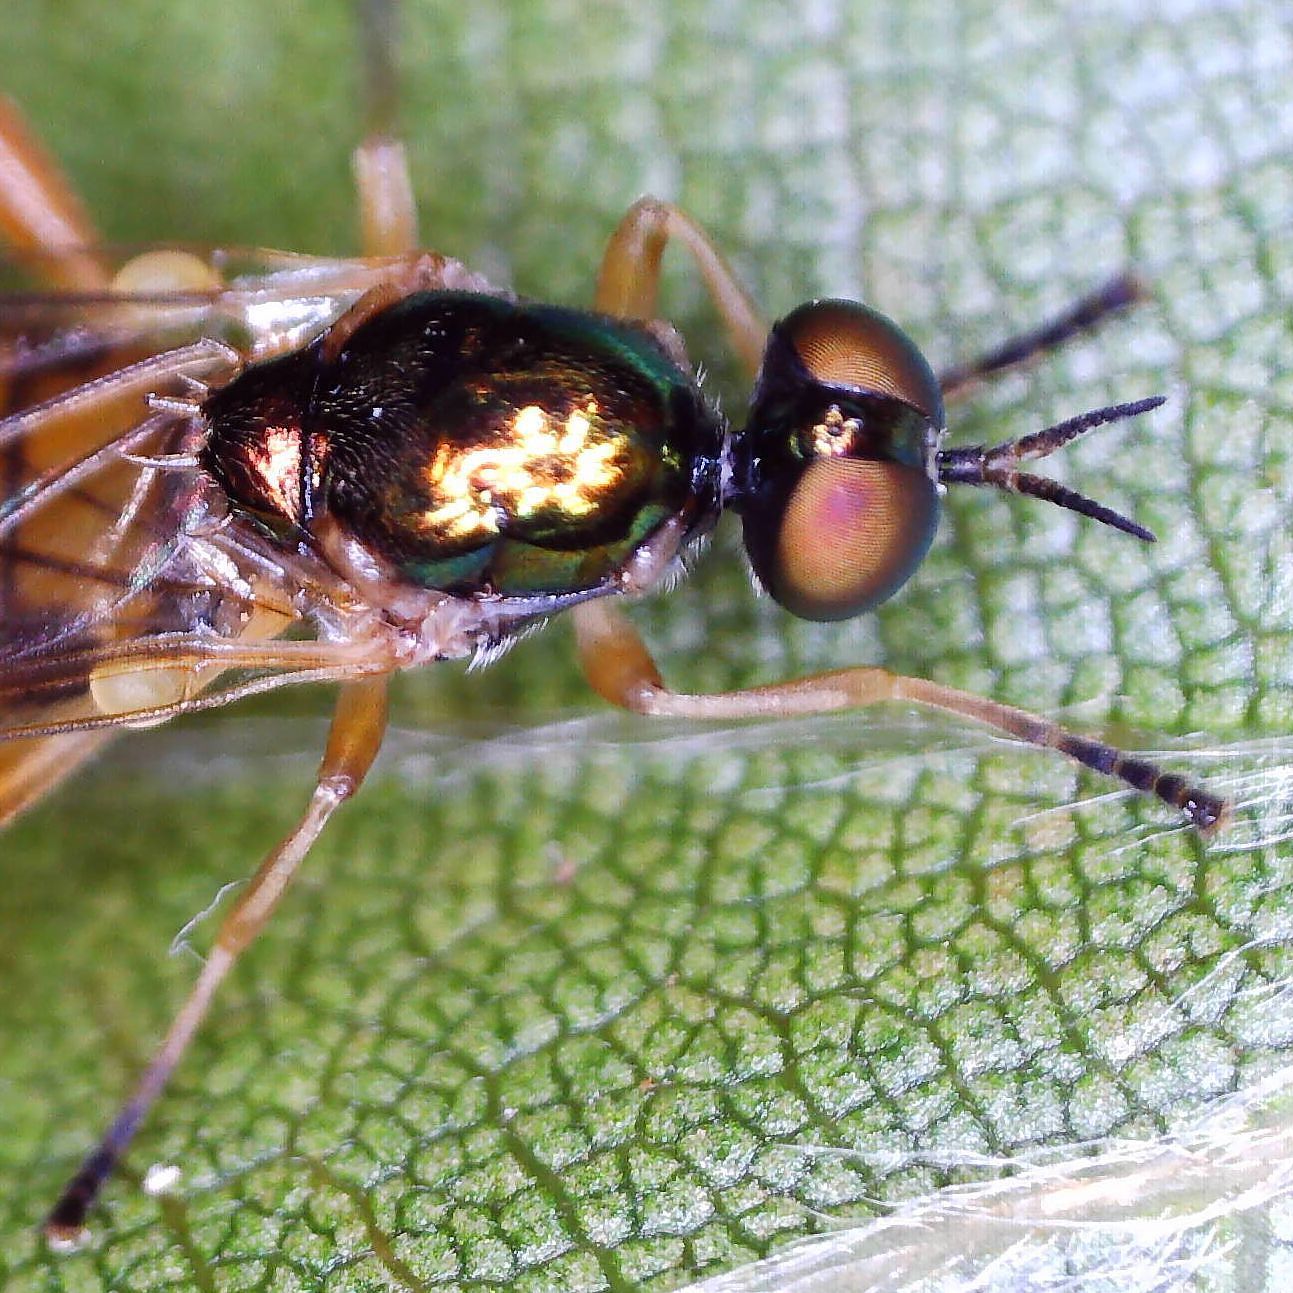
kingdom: Animalia
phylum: Arthropoda
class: Insecta
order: Diptera
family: Stratiomyidae
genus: Chorisops
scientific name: Chorisops nagatomii
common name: Bright four-spined legionnaire
